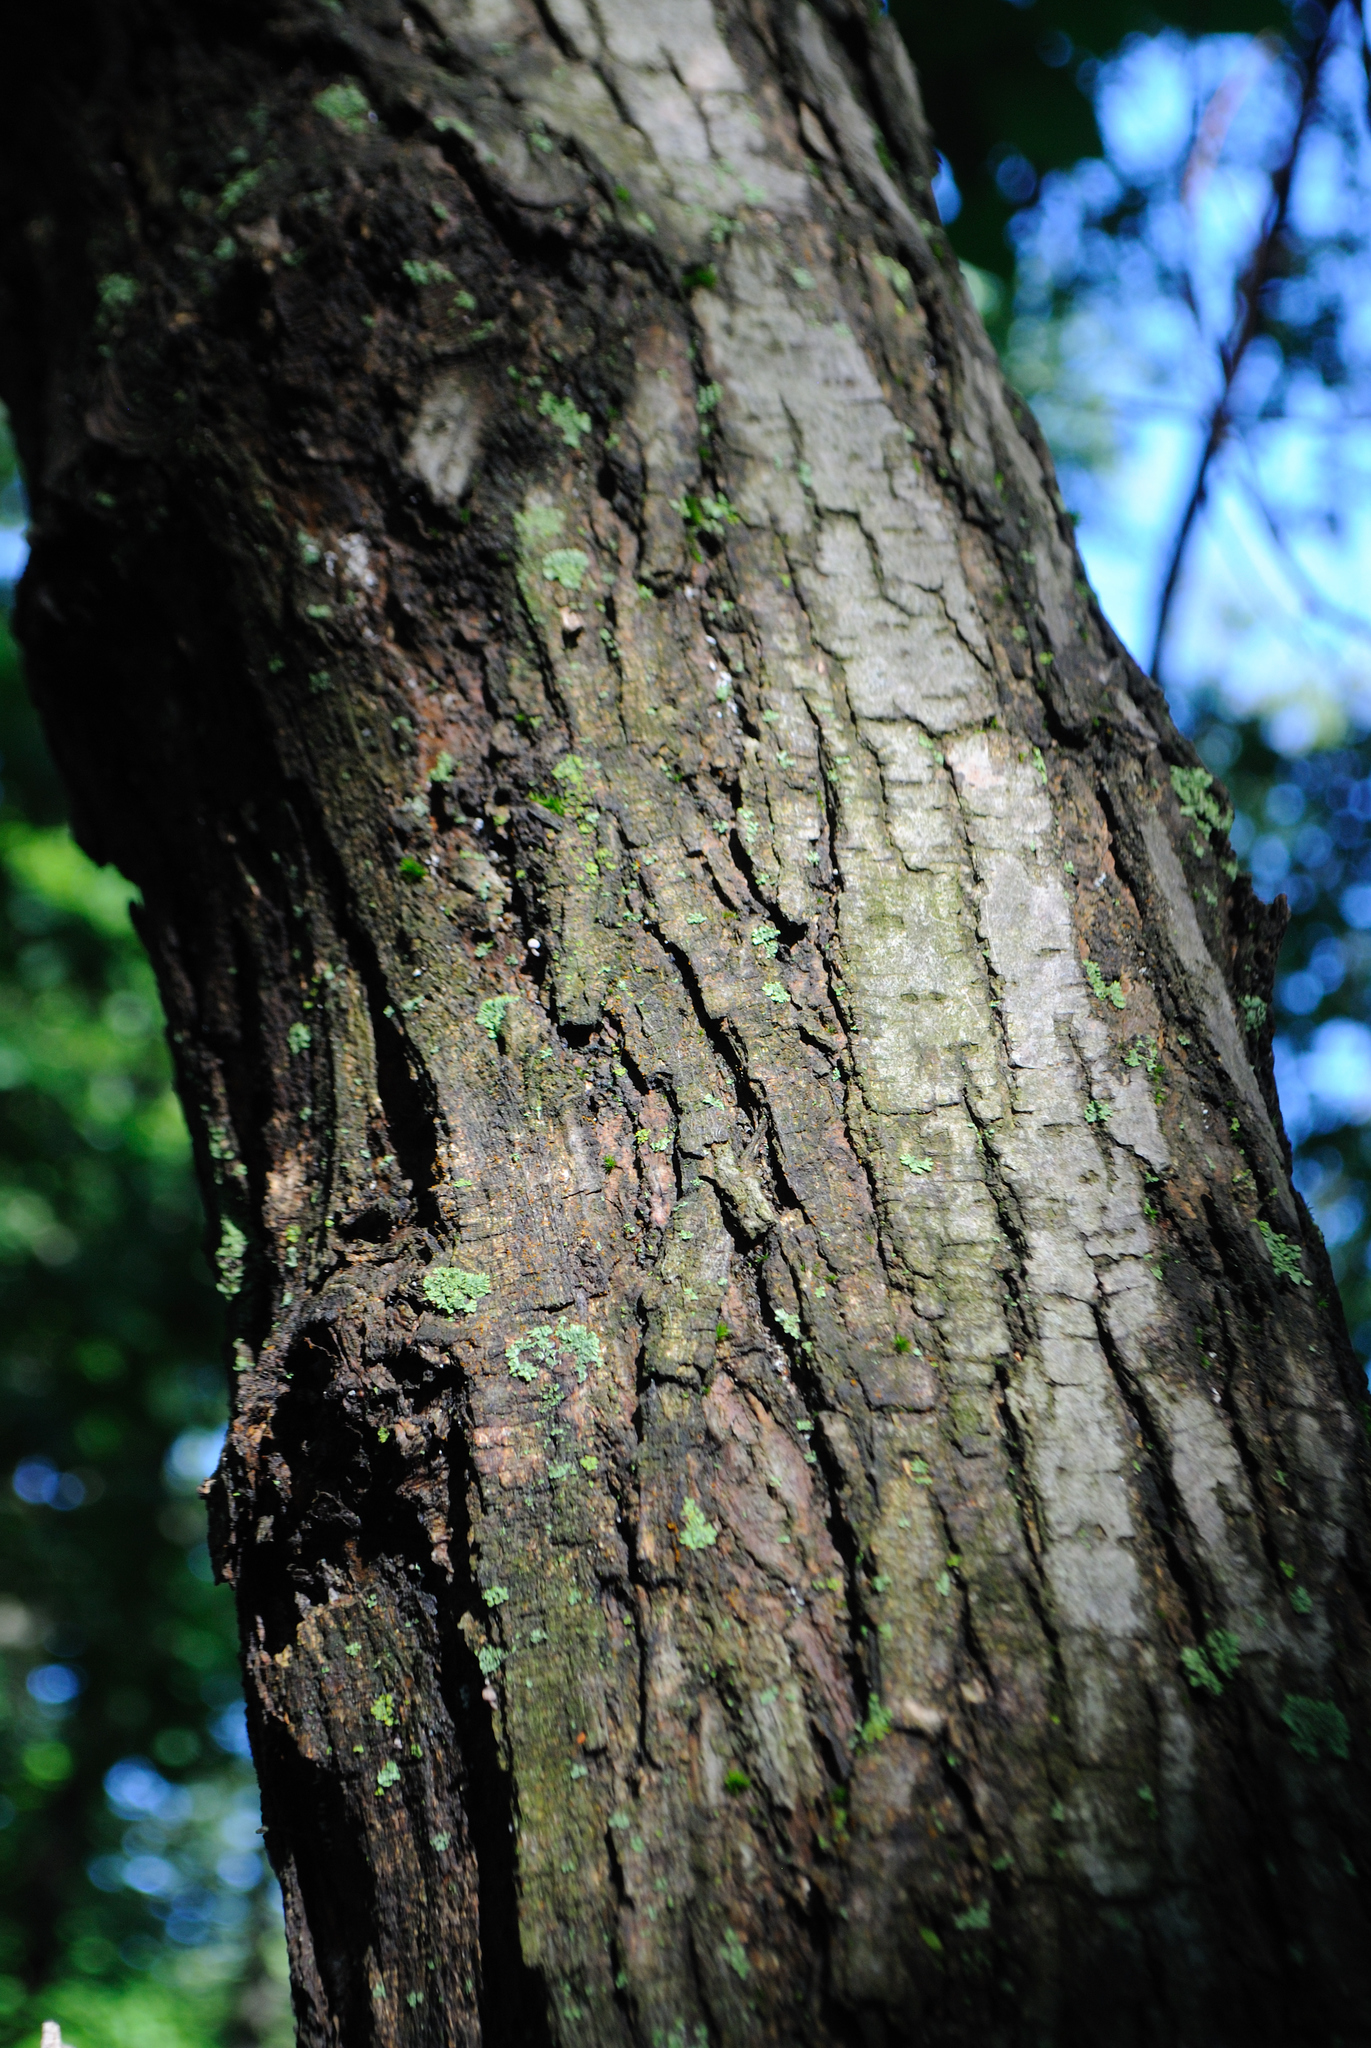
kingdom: Plantae
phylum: Tracheophyta
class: Magnoliopsida
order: Rosales
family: Moraceae
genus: Morus
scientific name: Morus rubra
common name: Red mulberry
